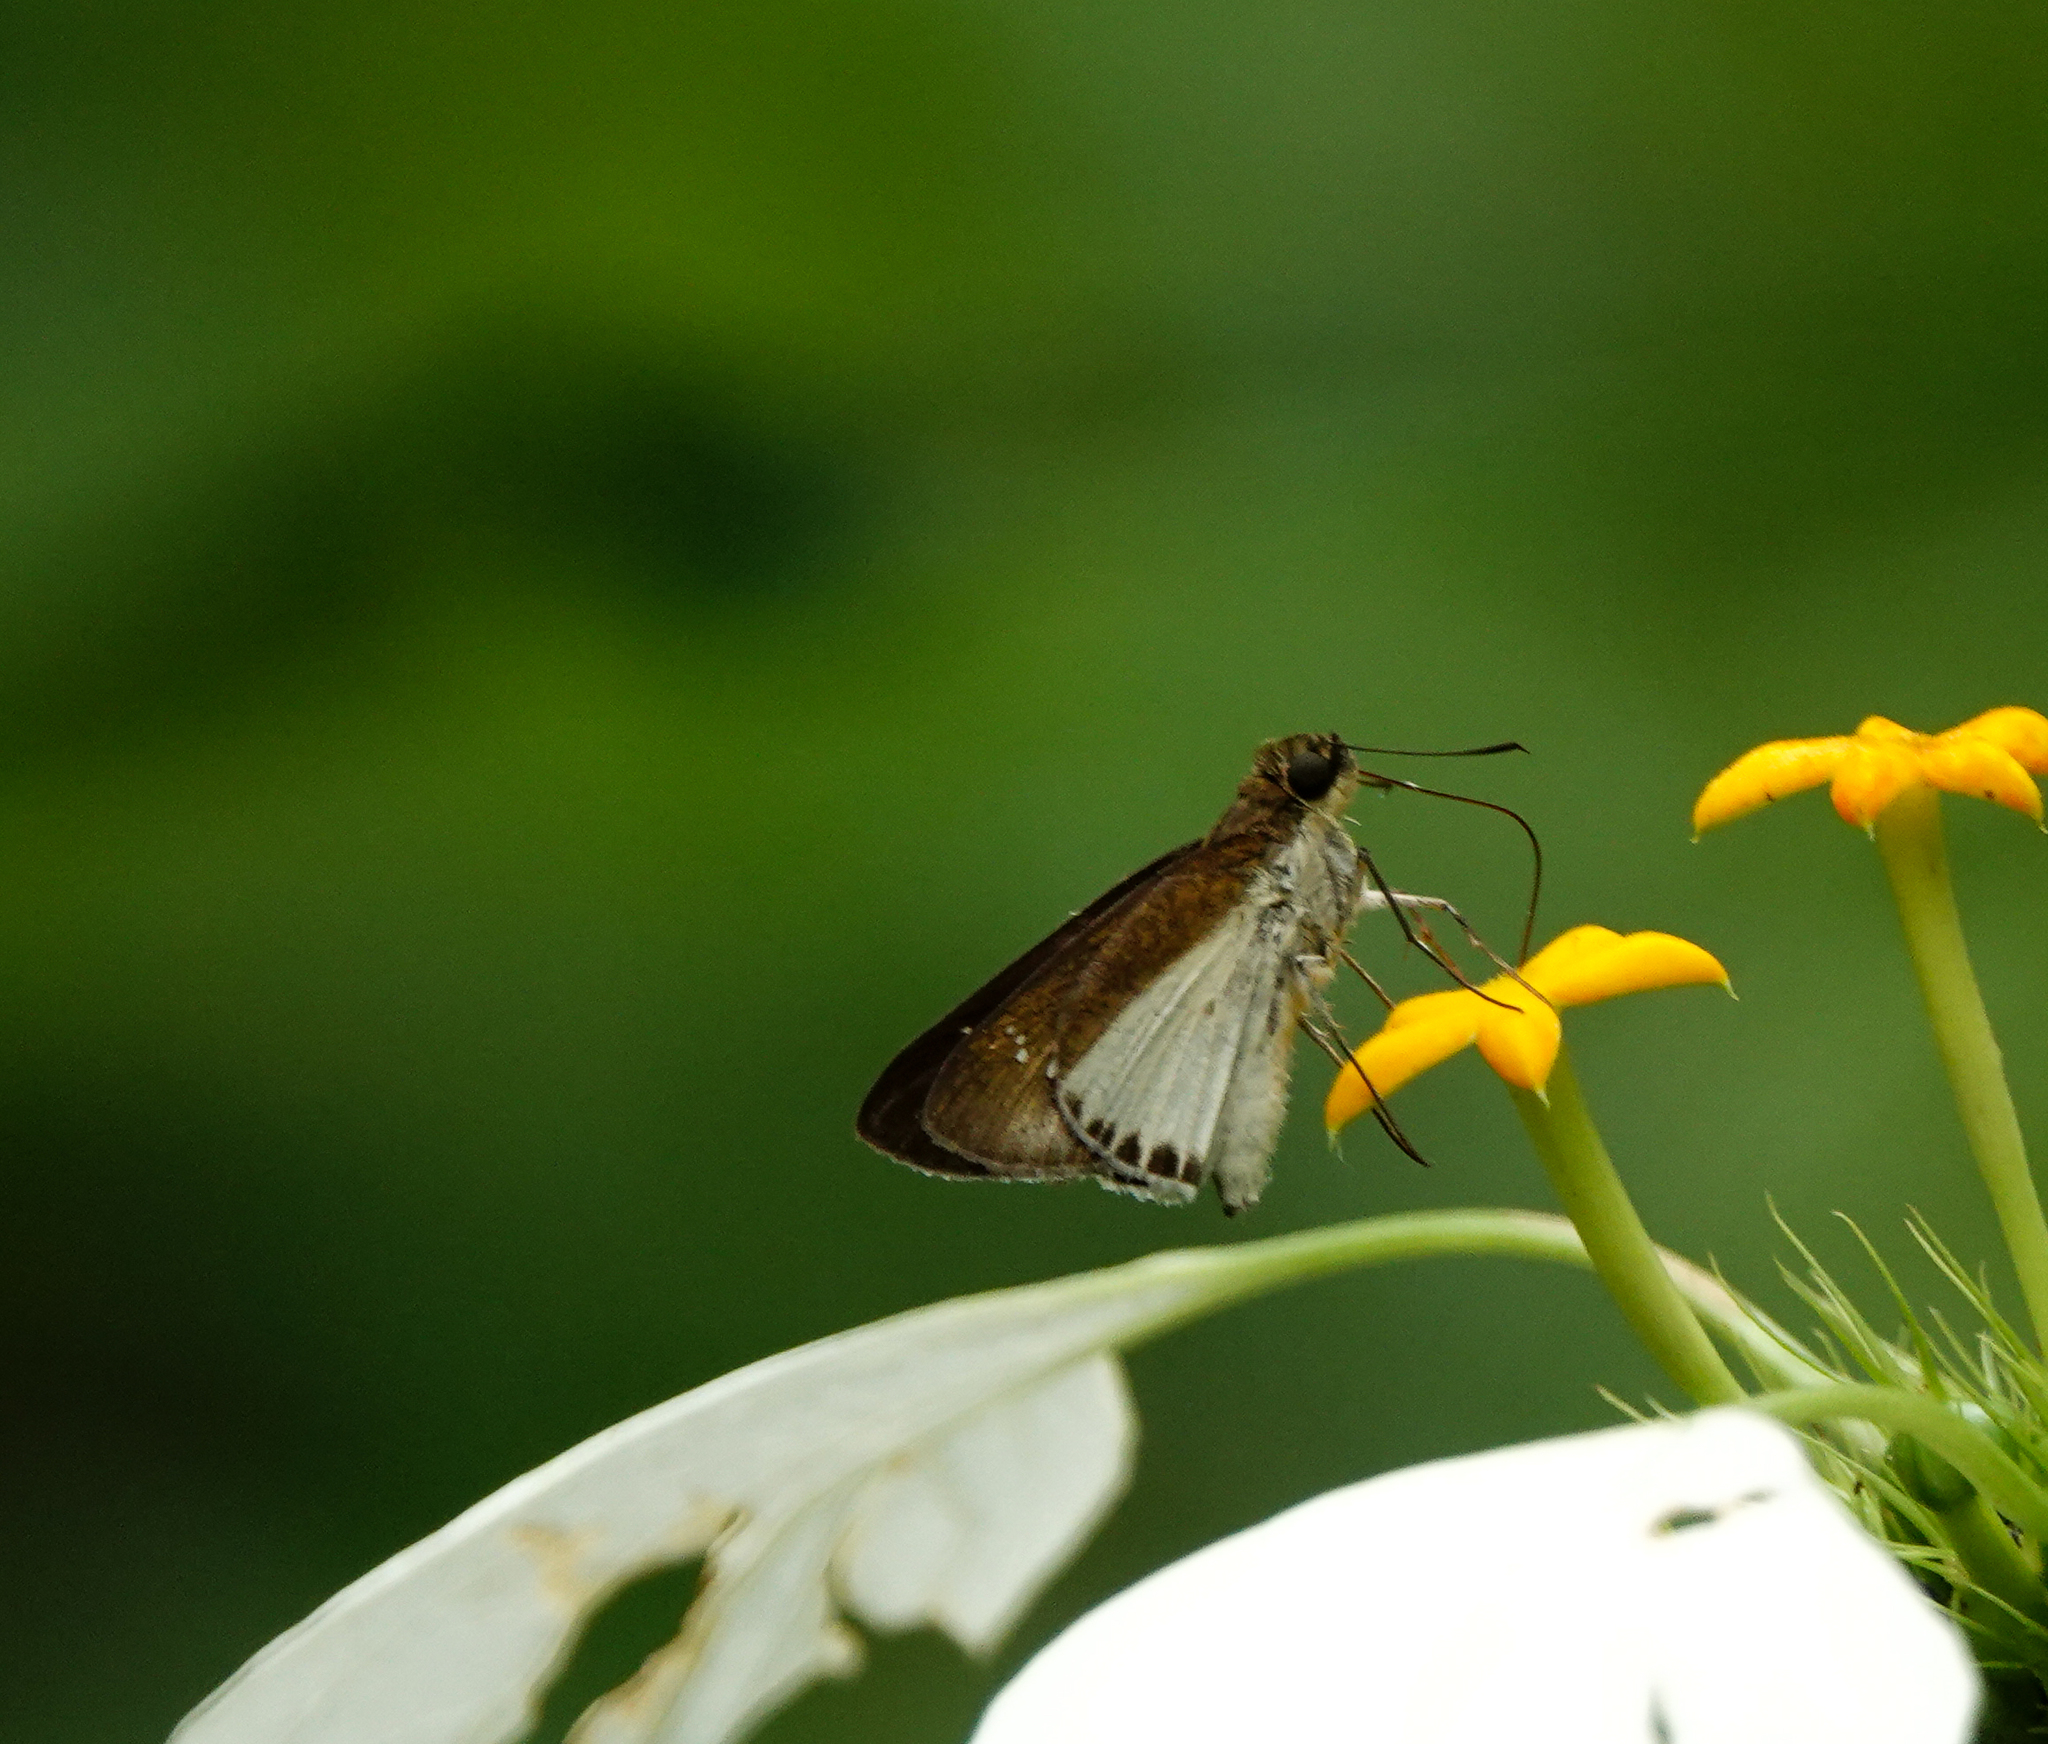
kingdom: Animalia
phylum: Arthropoda
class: Insecta
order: Lepidoptera
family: Hesperiidae
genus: Iton
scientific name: Iton semamora
